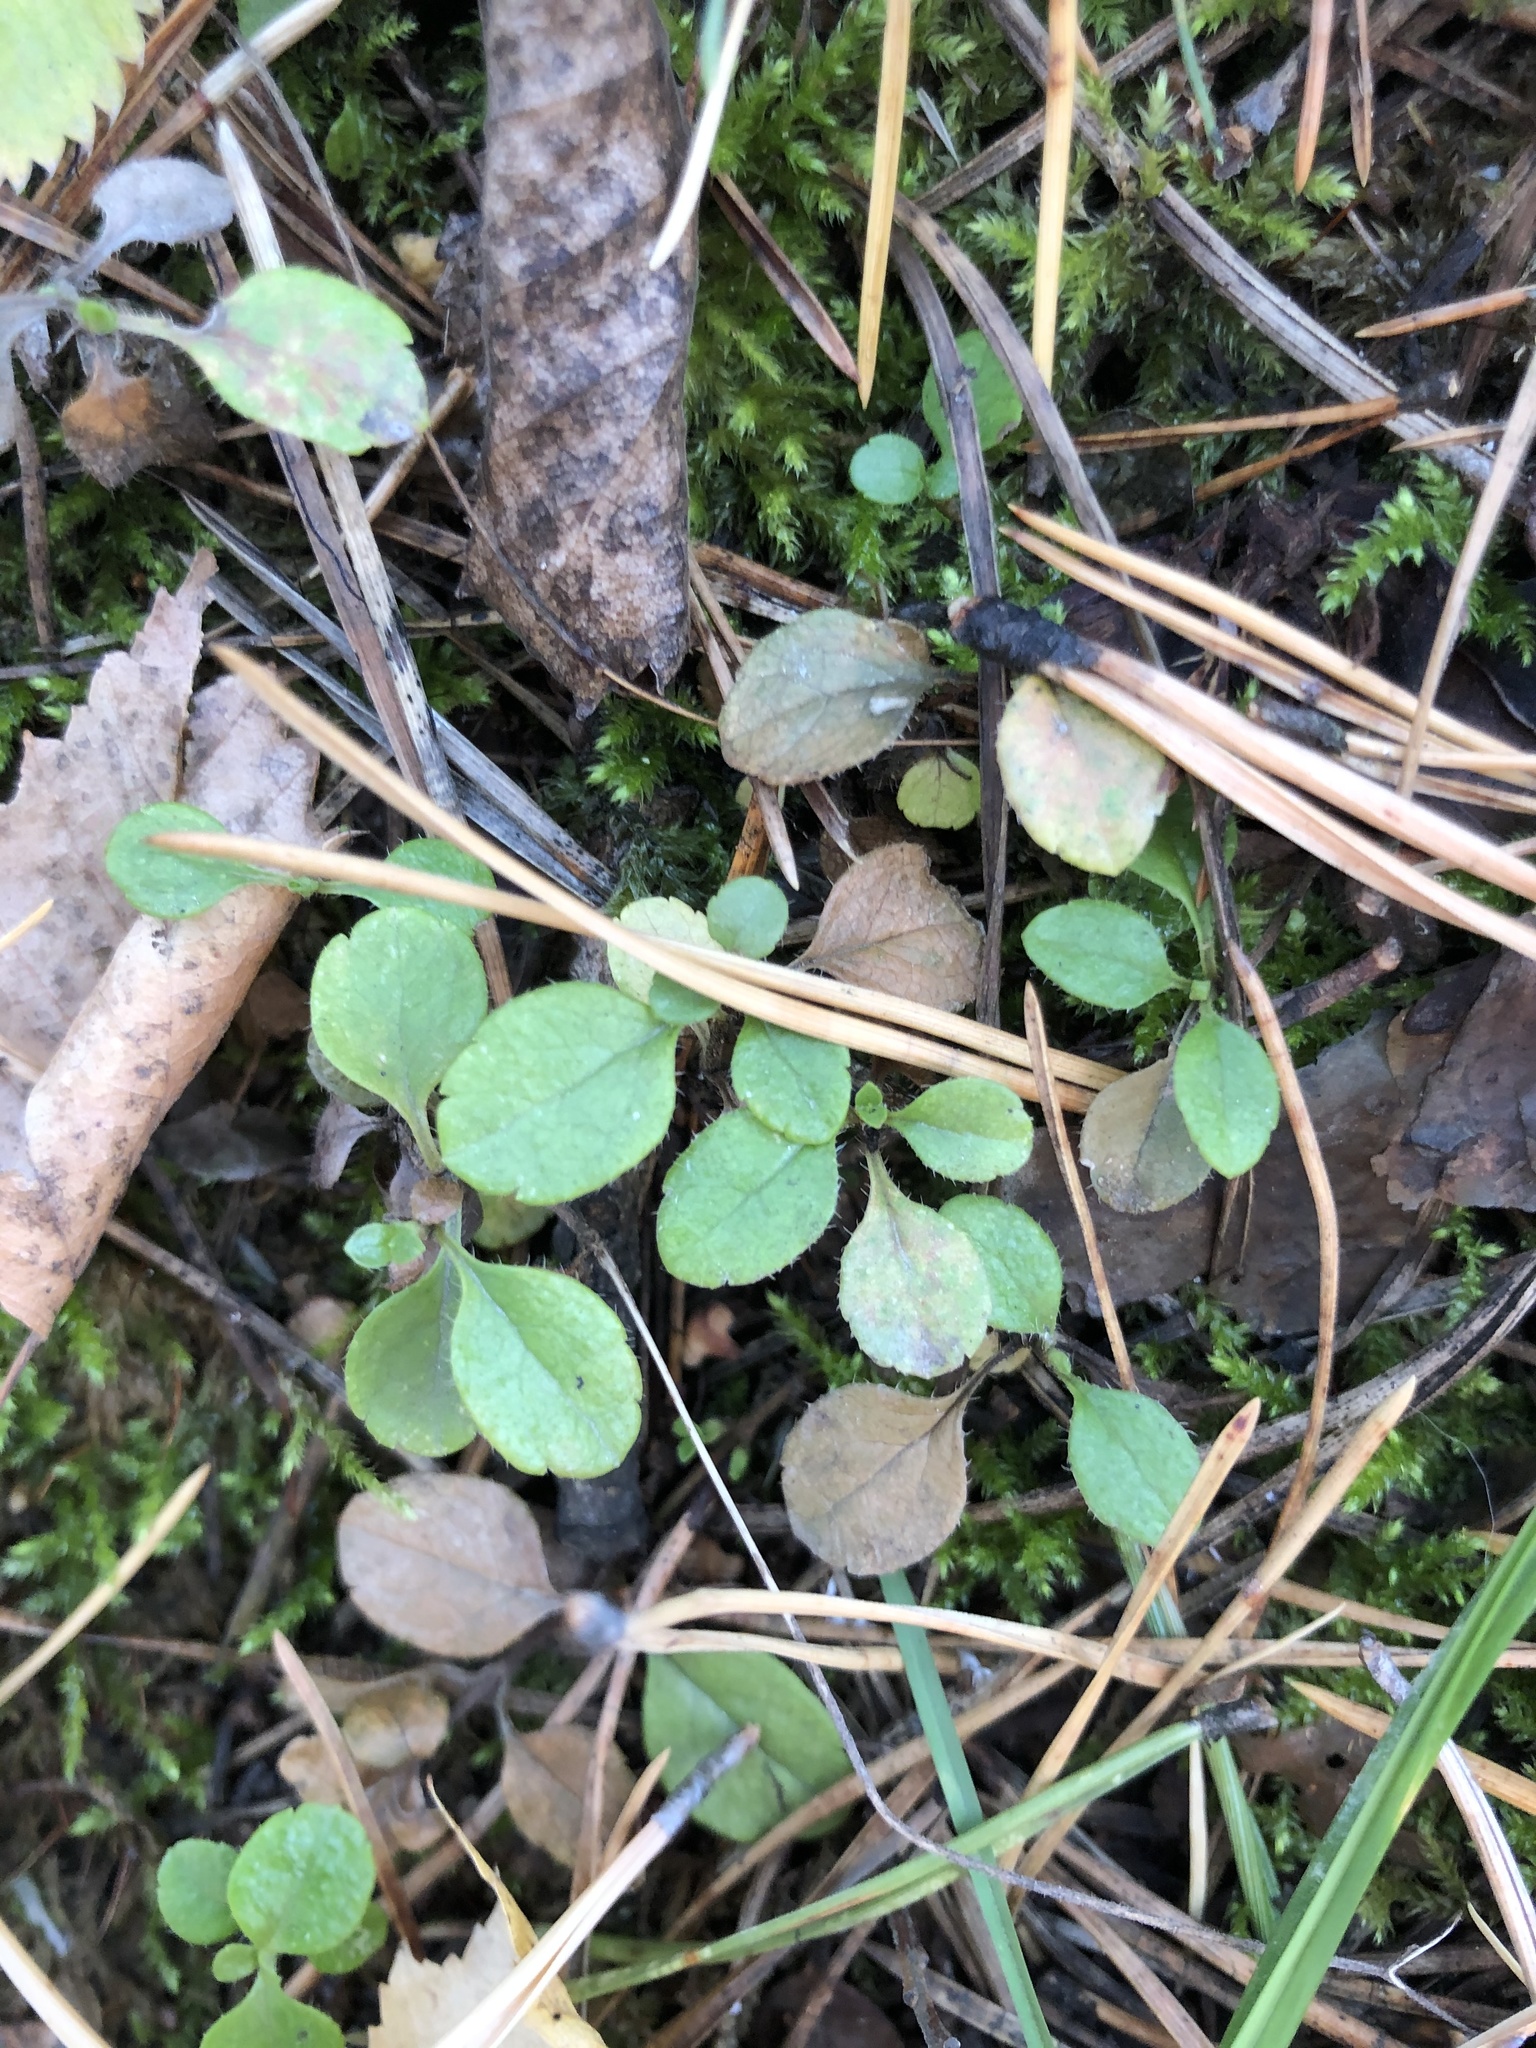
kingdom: Plantae
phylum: Tracheophyta
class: Magnoliopsida
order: Dipsacales
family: Caprifoliaceae
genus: Linnaea
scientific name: Linnaea borealis
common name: Twinflower
